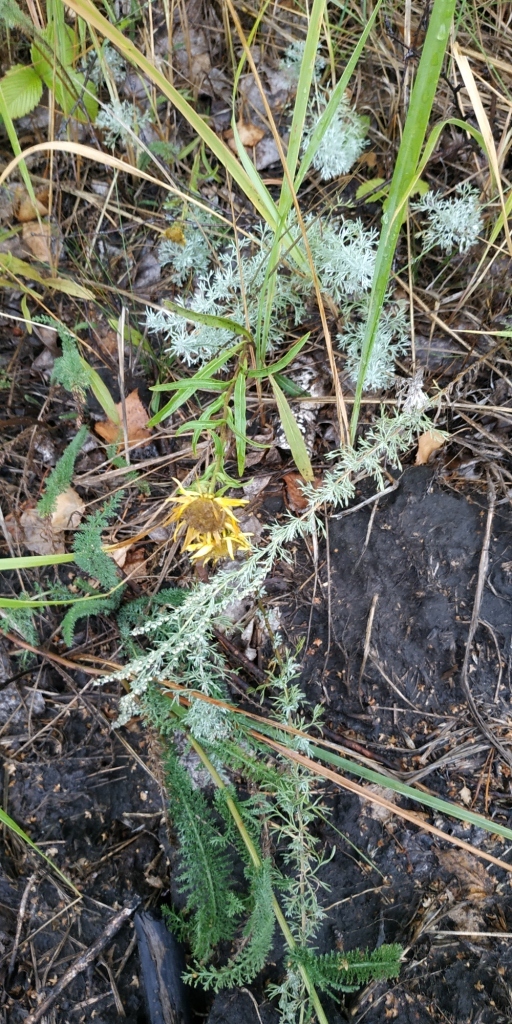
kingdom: Plantae
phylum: Tracheophyta
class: Magnoliopsida
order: Asterales
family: Asteraceae
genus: Pentanema
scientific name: Pentanema britannicum
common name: British elecampane
